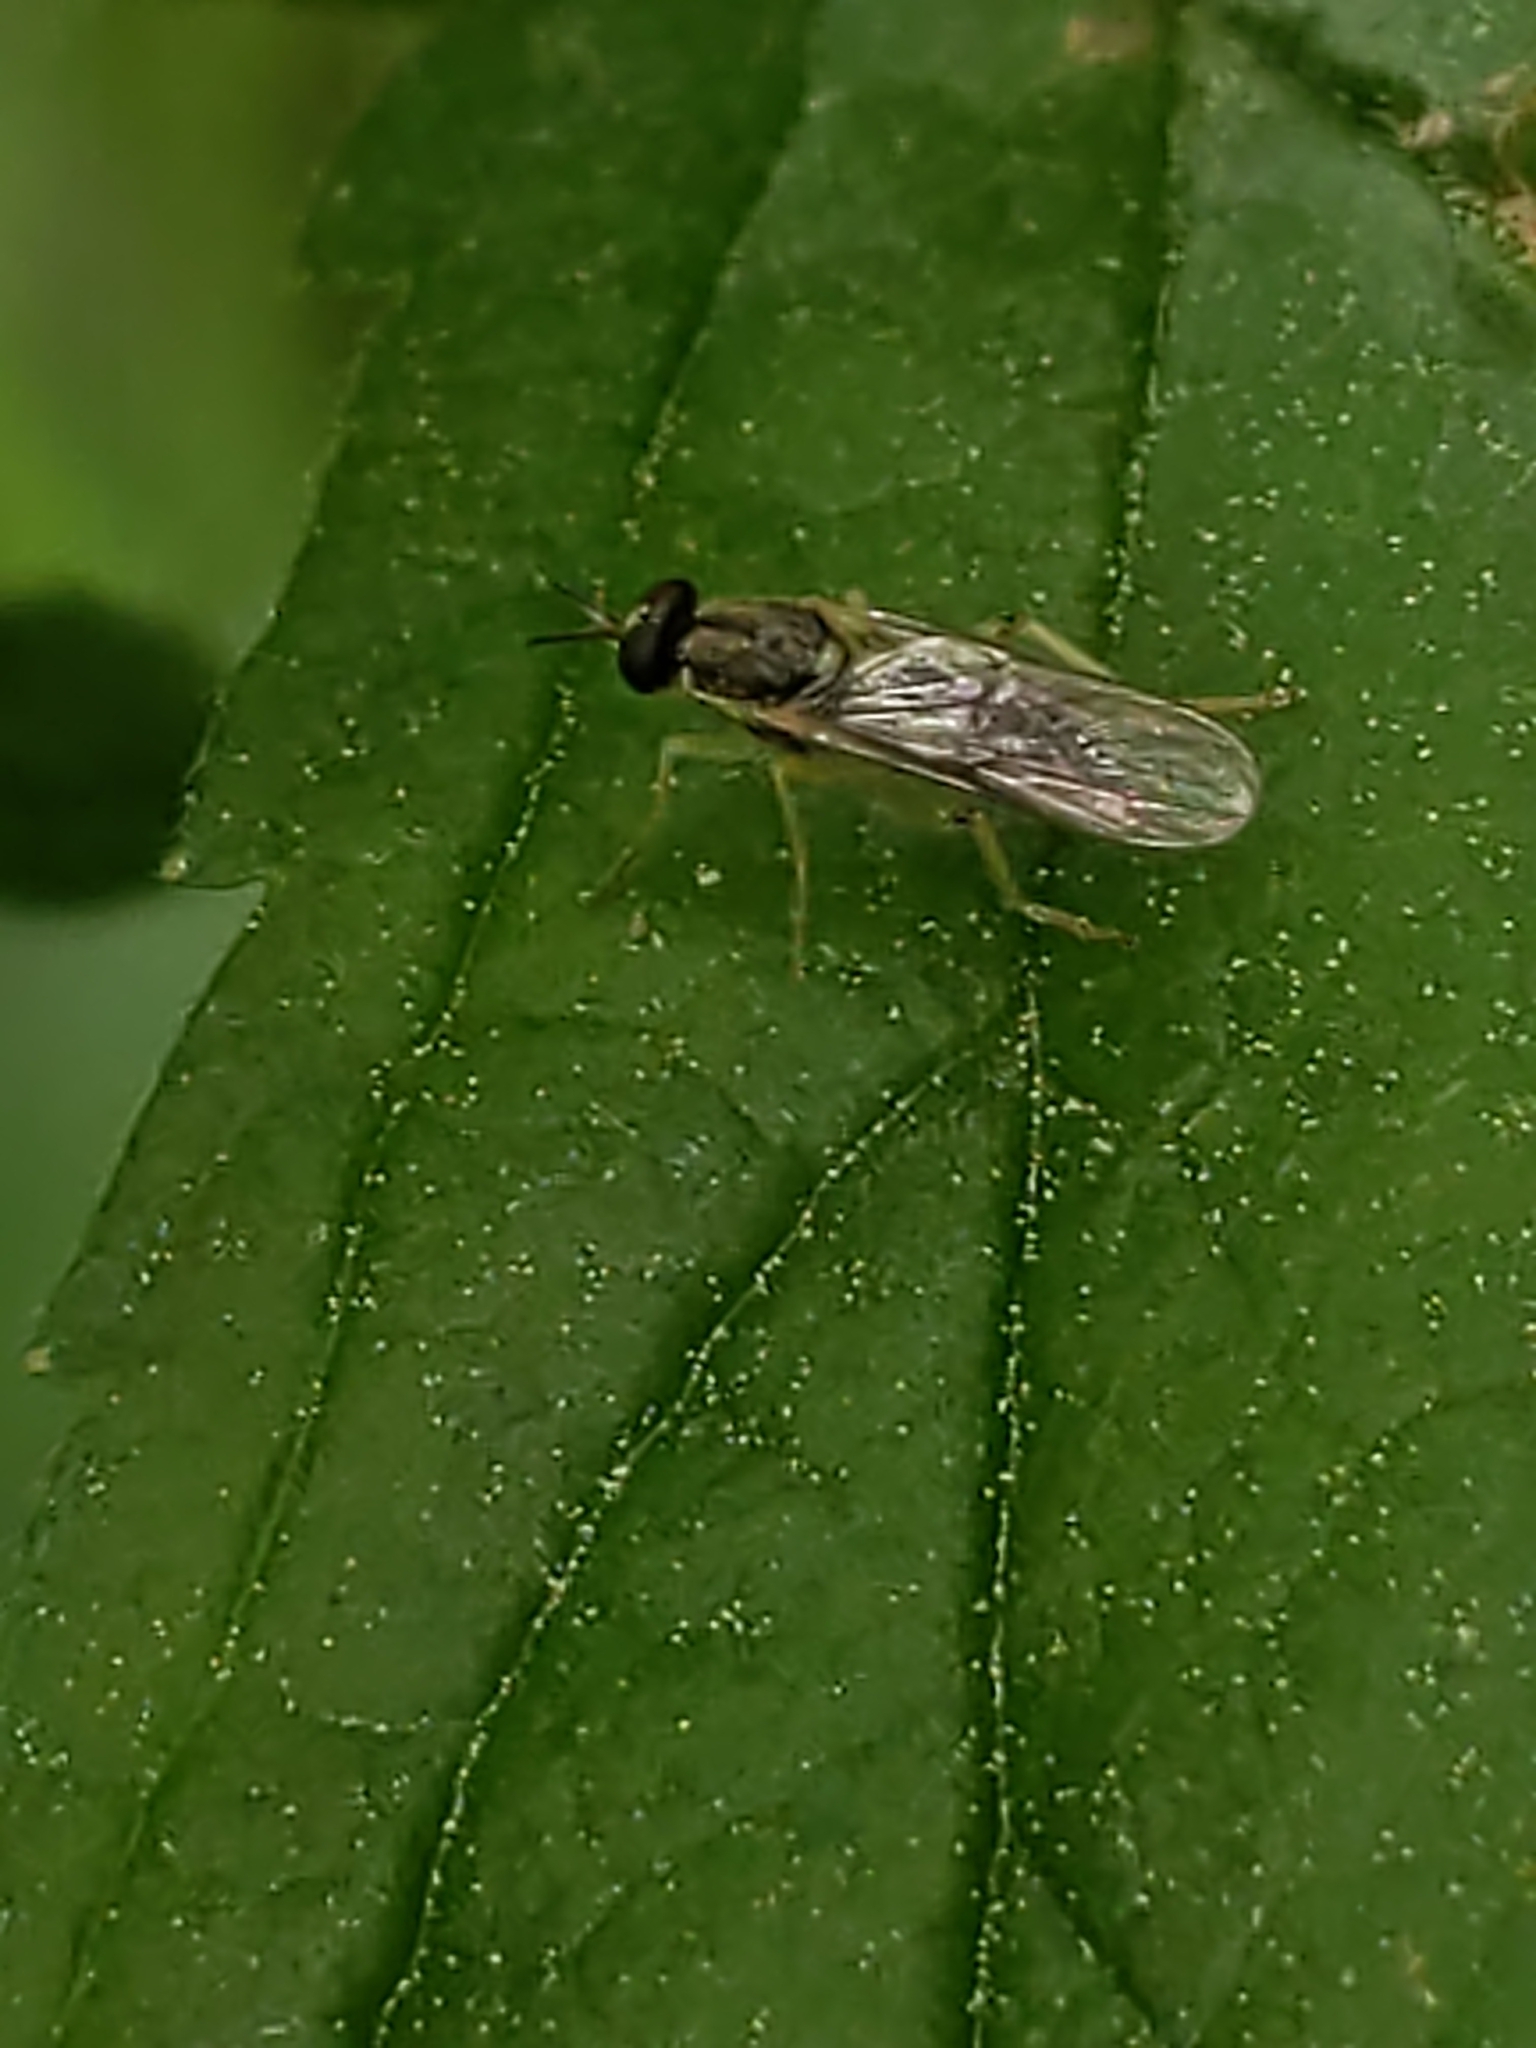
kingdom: Animalia
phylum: Arthropoda
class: Insecta
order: Diptera
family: Xylomyidae
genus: Solva
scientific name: Solva pallipes
